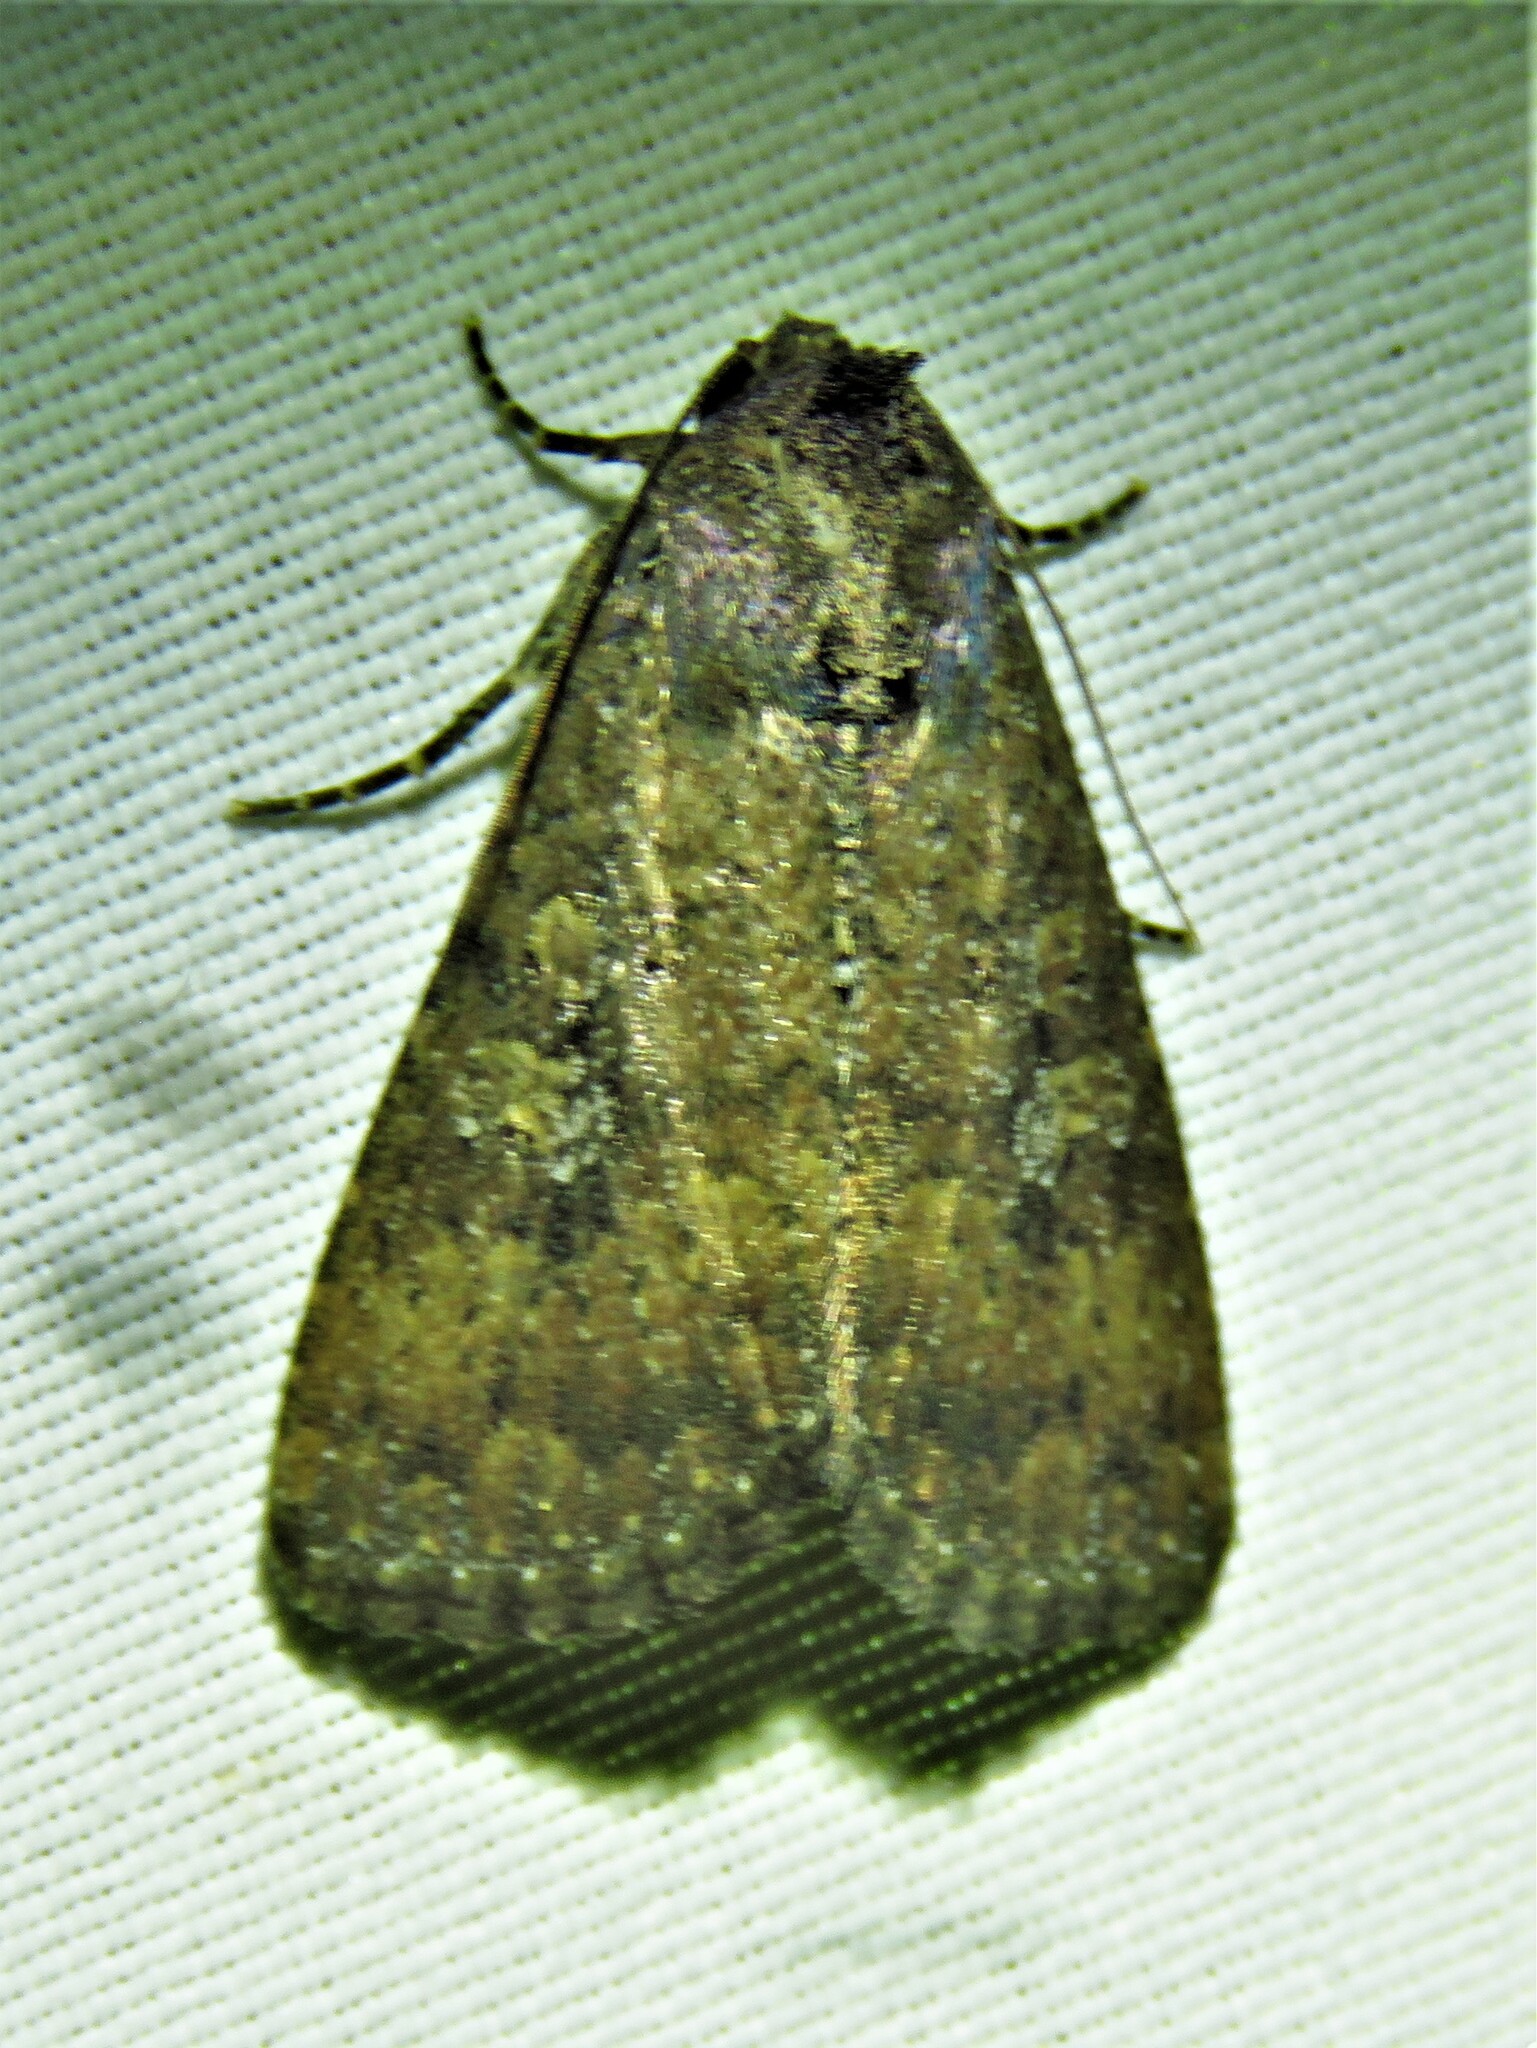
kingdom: Animalia
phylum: Arthropoda
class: Insecta
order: Lepidoptera
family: Noctuidae
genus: Condica
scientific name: Condica sutor
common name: Cobbler moth
